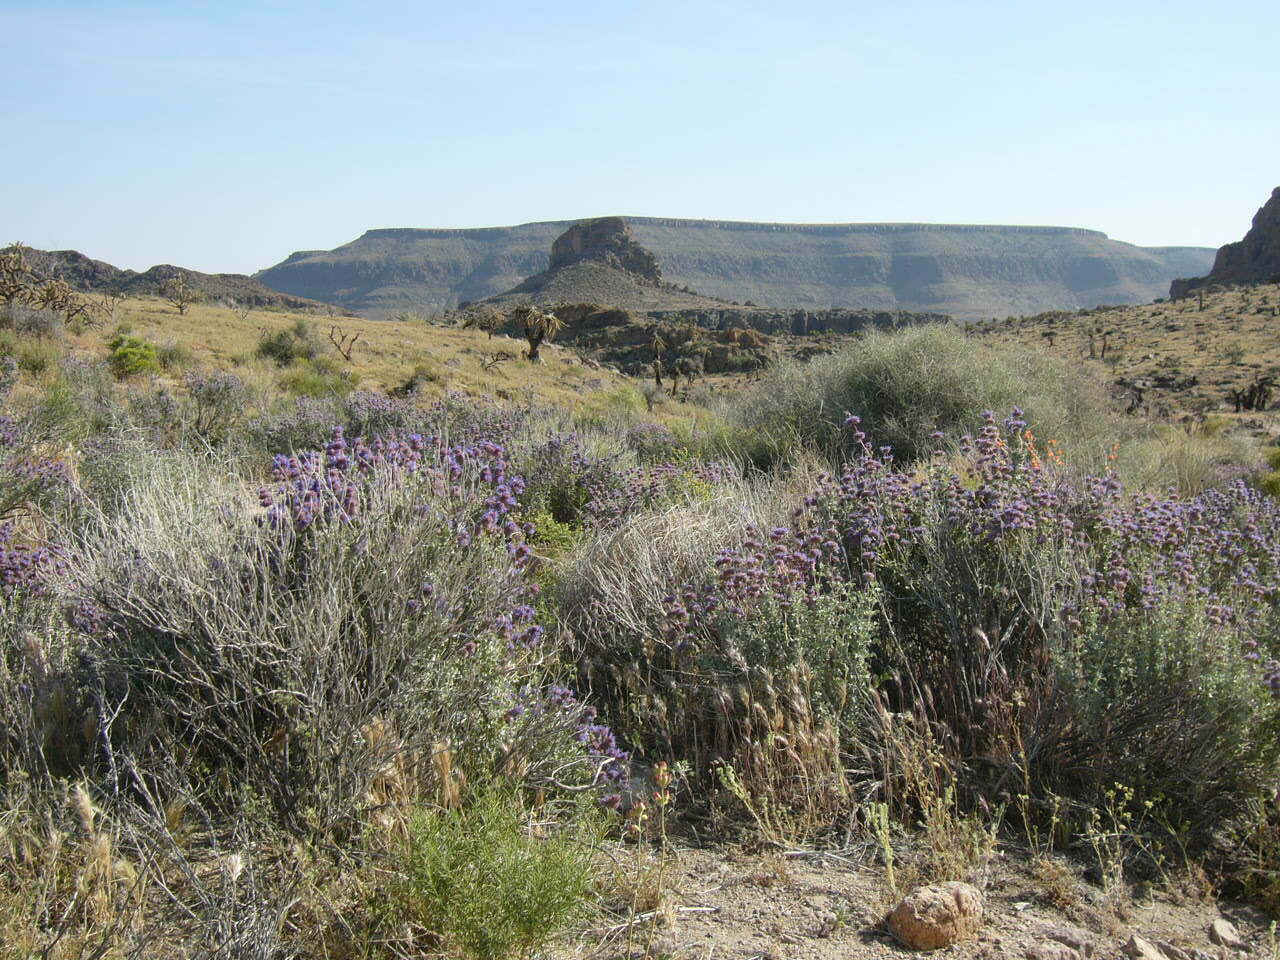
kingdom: Plantae
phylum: Tracheophyta
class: Magnoliopsida
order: Lamiales
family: Lamiaceae
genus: Salvia
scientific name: Salvia dorrii
